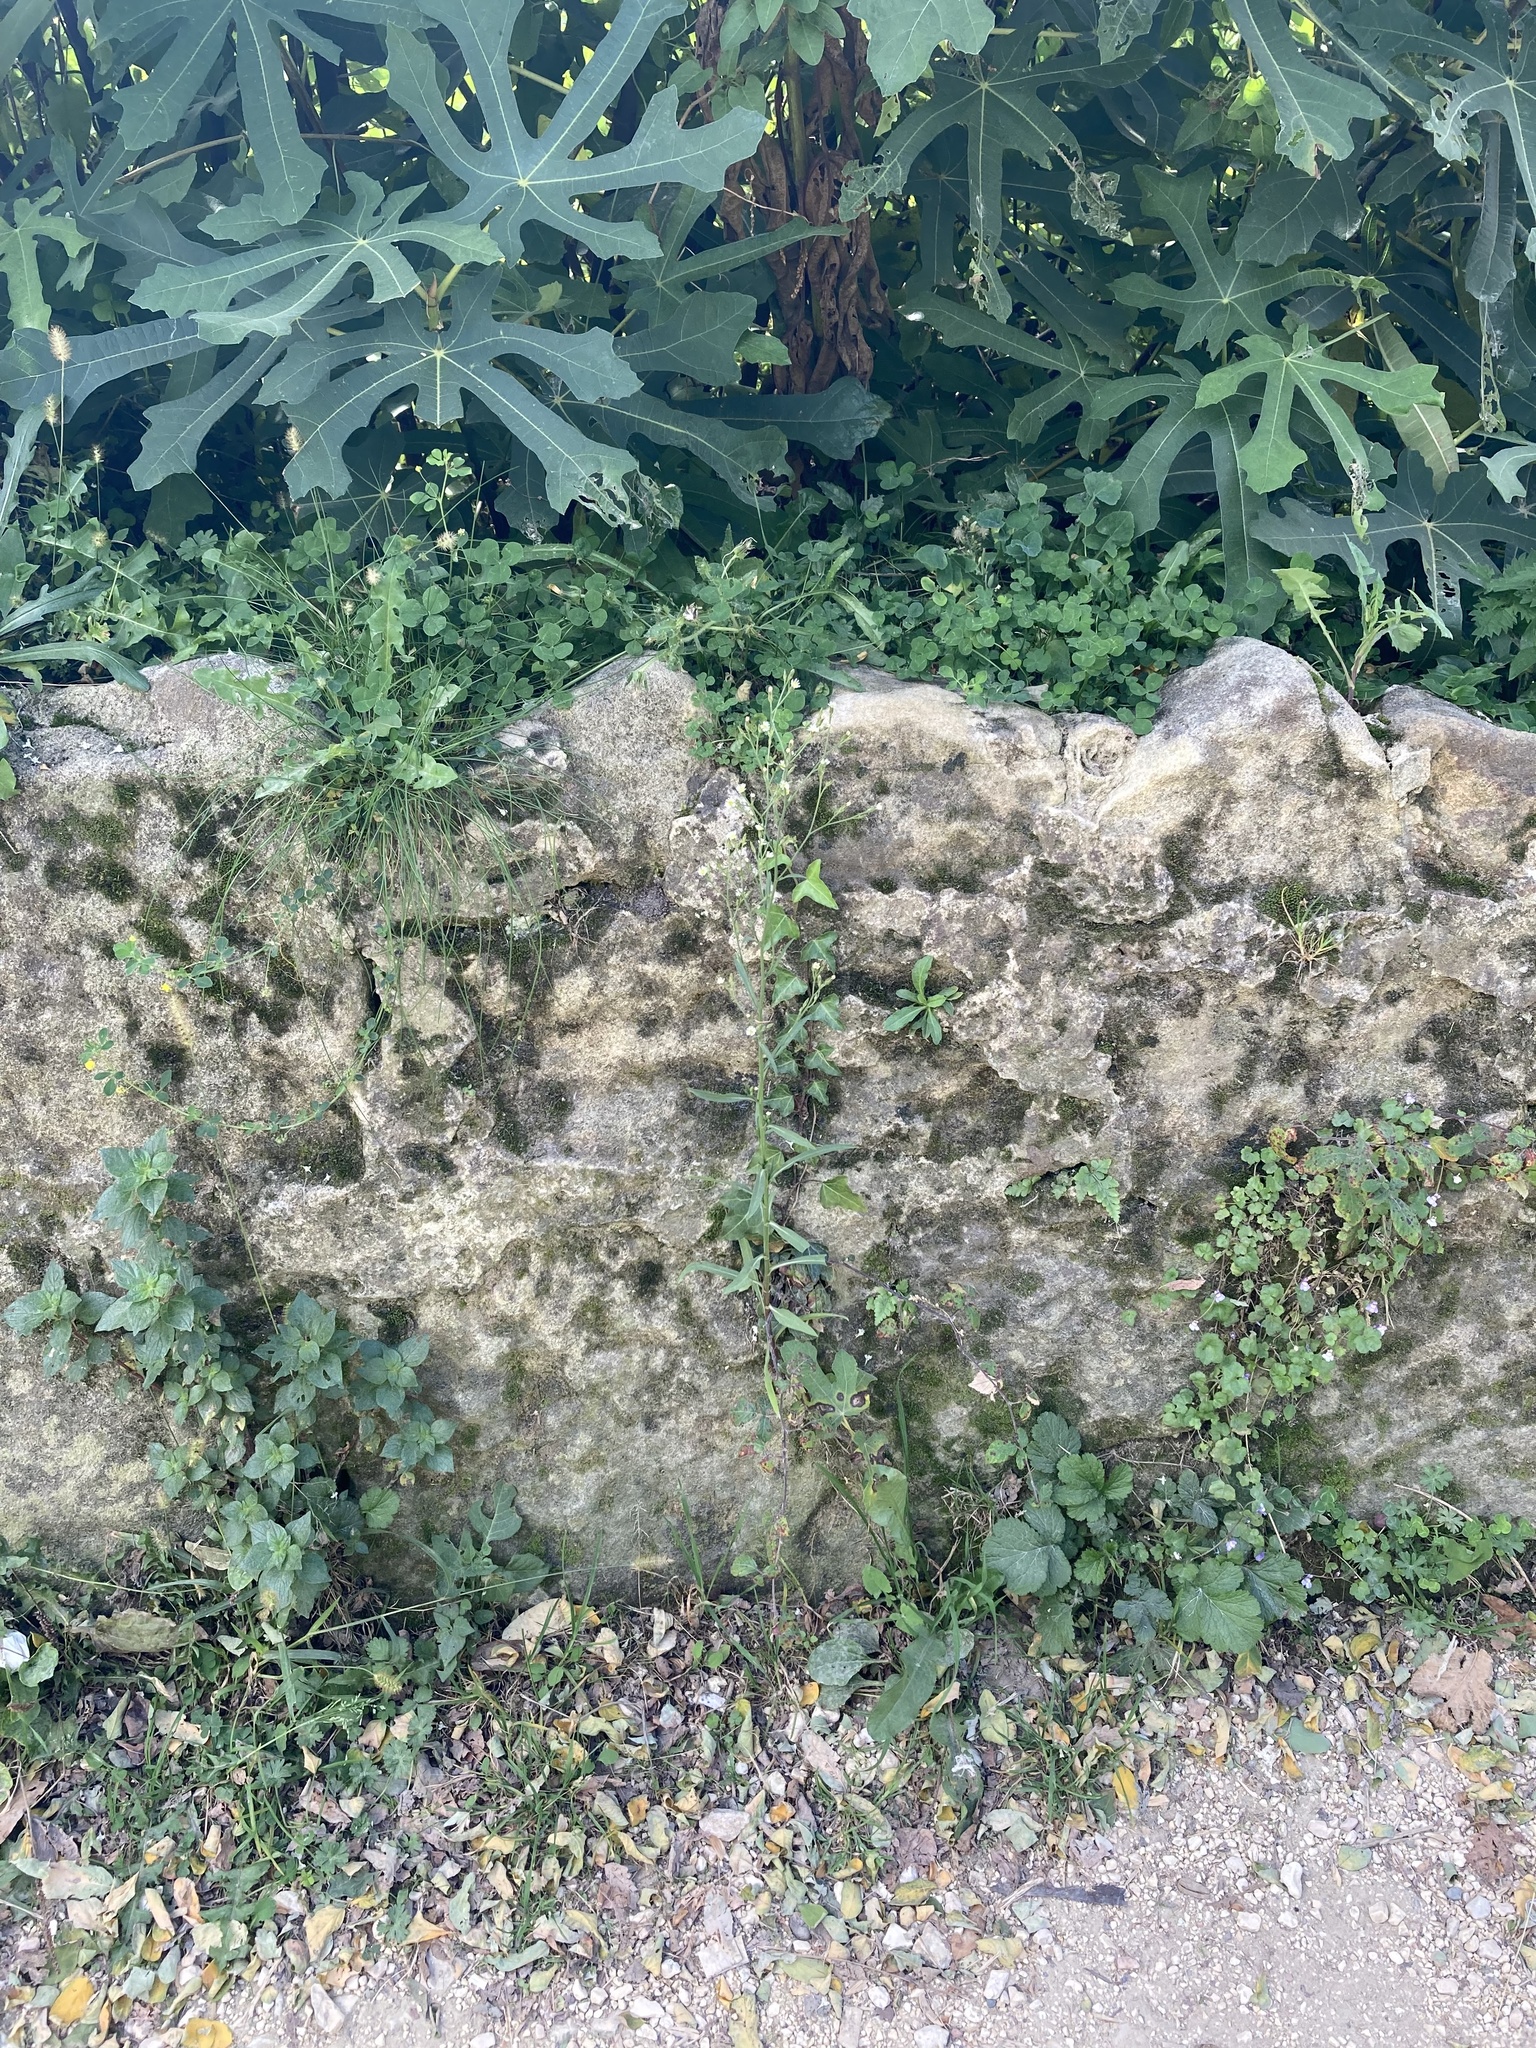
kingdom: Plantae
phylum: Tracheophyta
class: Magnoliopsida
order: Asterales
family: Asteraceae
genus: Symphyotrichum
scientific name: Symphyotrichum squamatum
